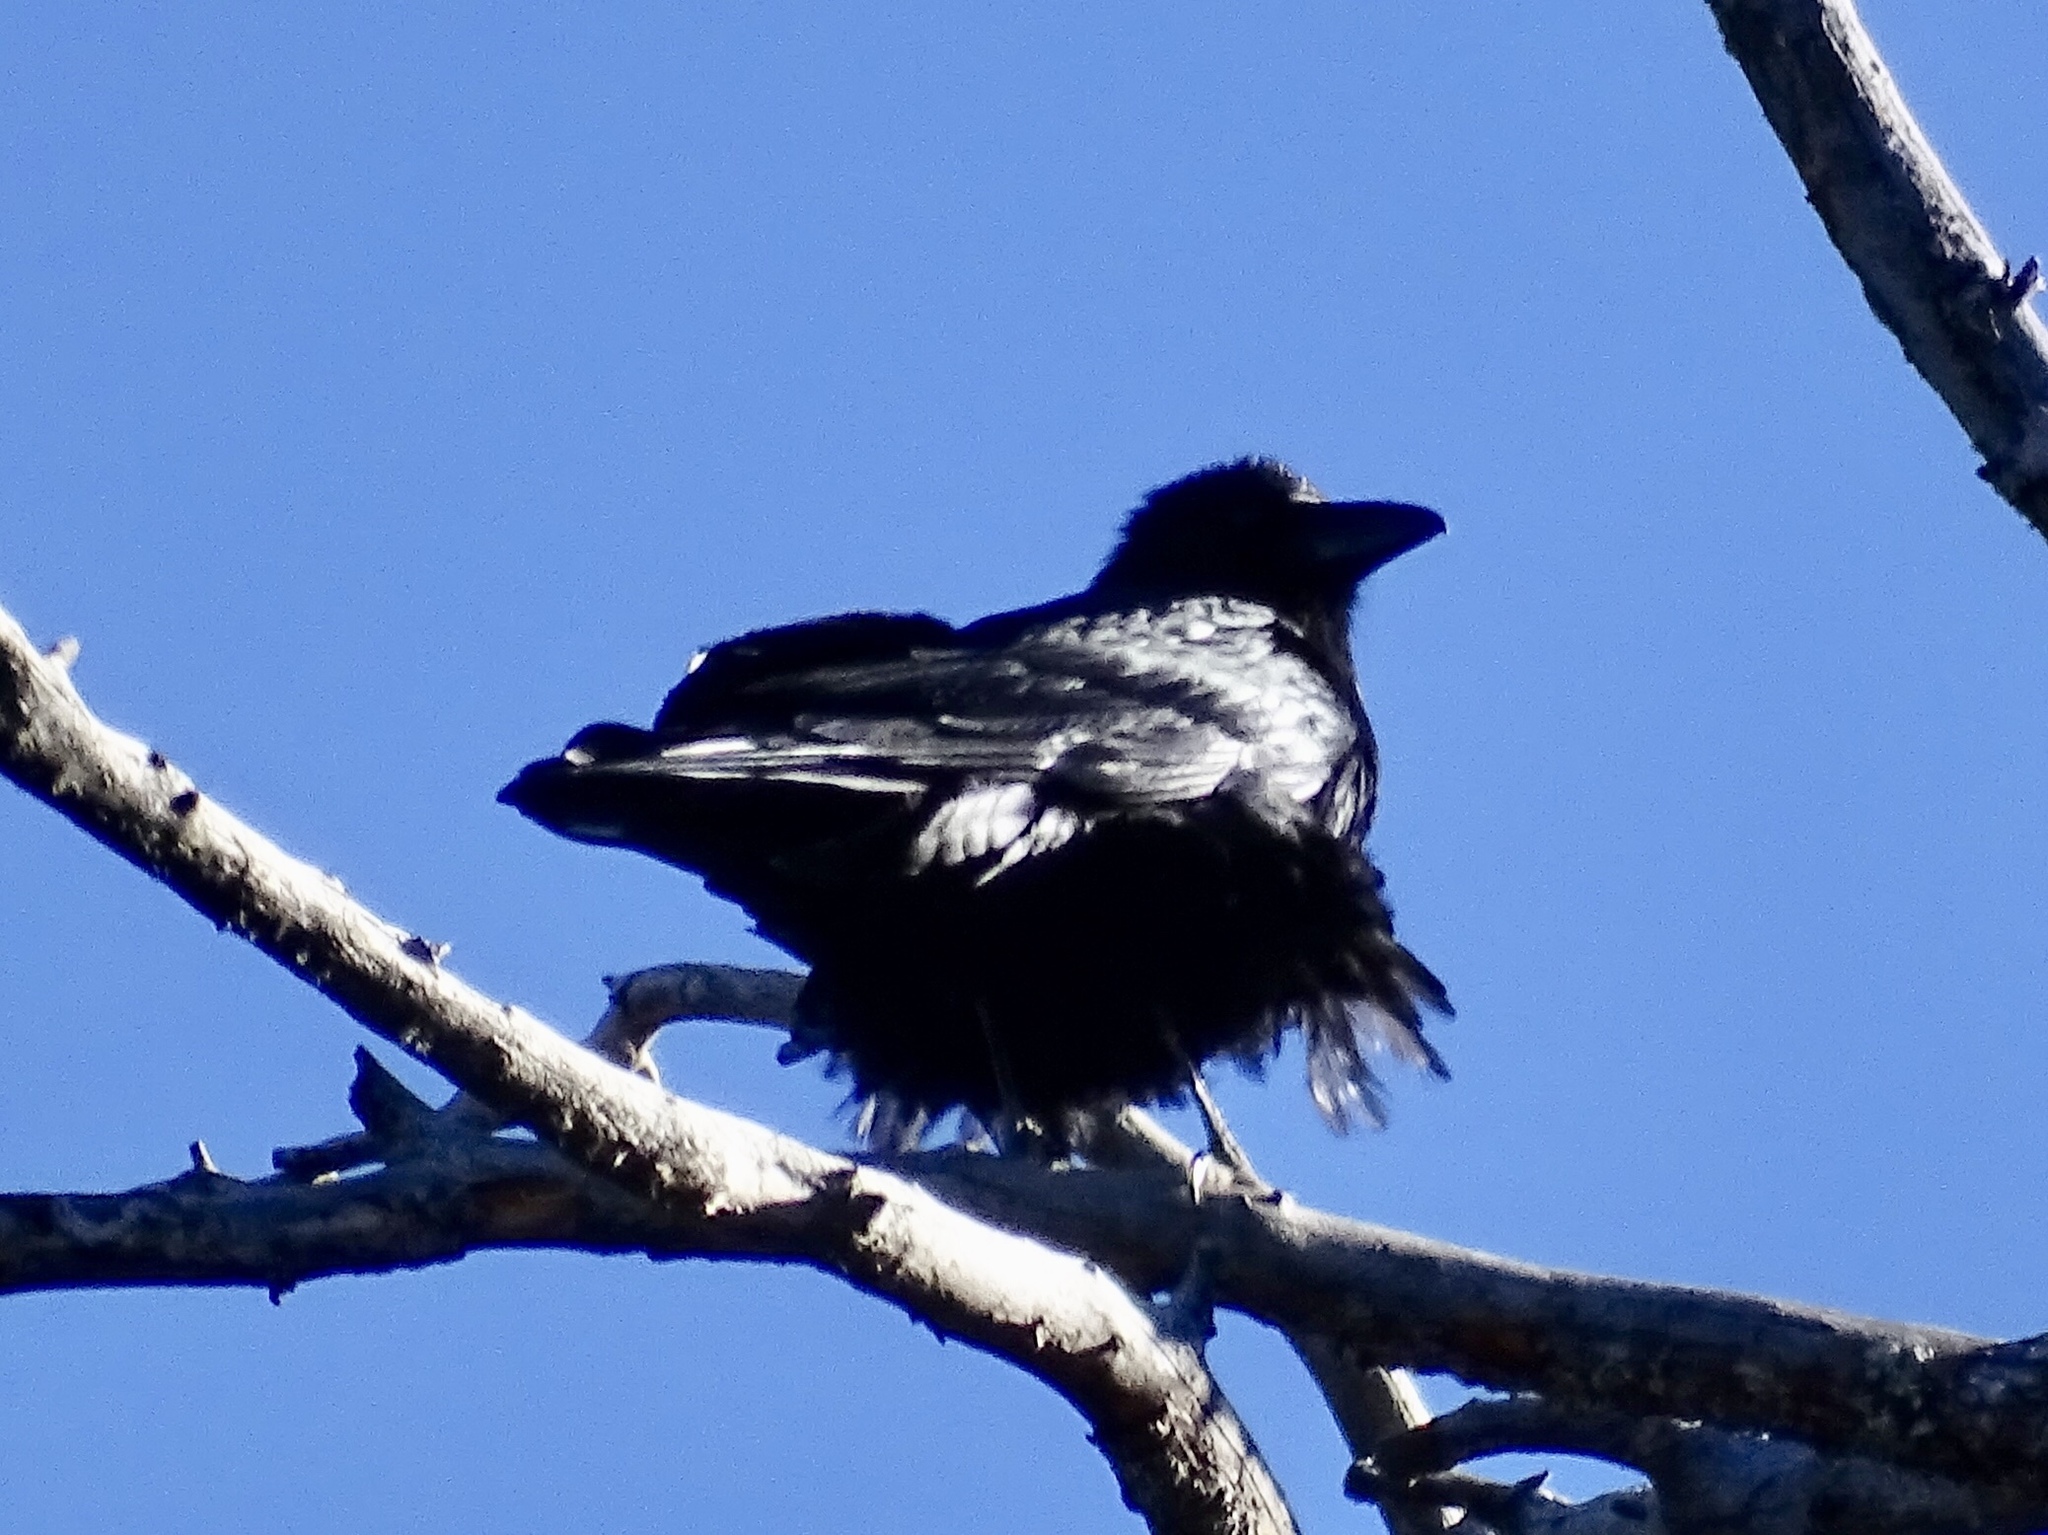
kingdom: Animalia
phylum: Chordata
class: Aves
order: Passeriformes
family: Corvidae
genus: Corvus
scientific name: Corvus corax
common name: Common raven
